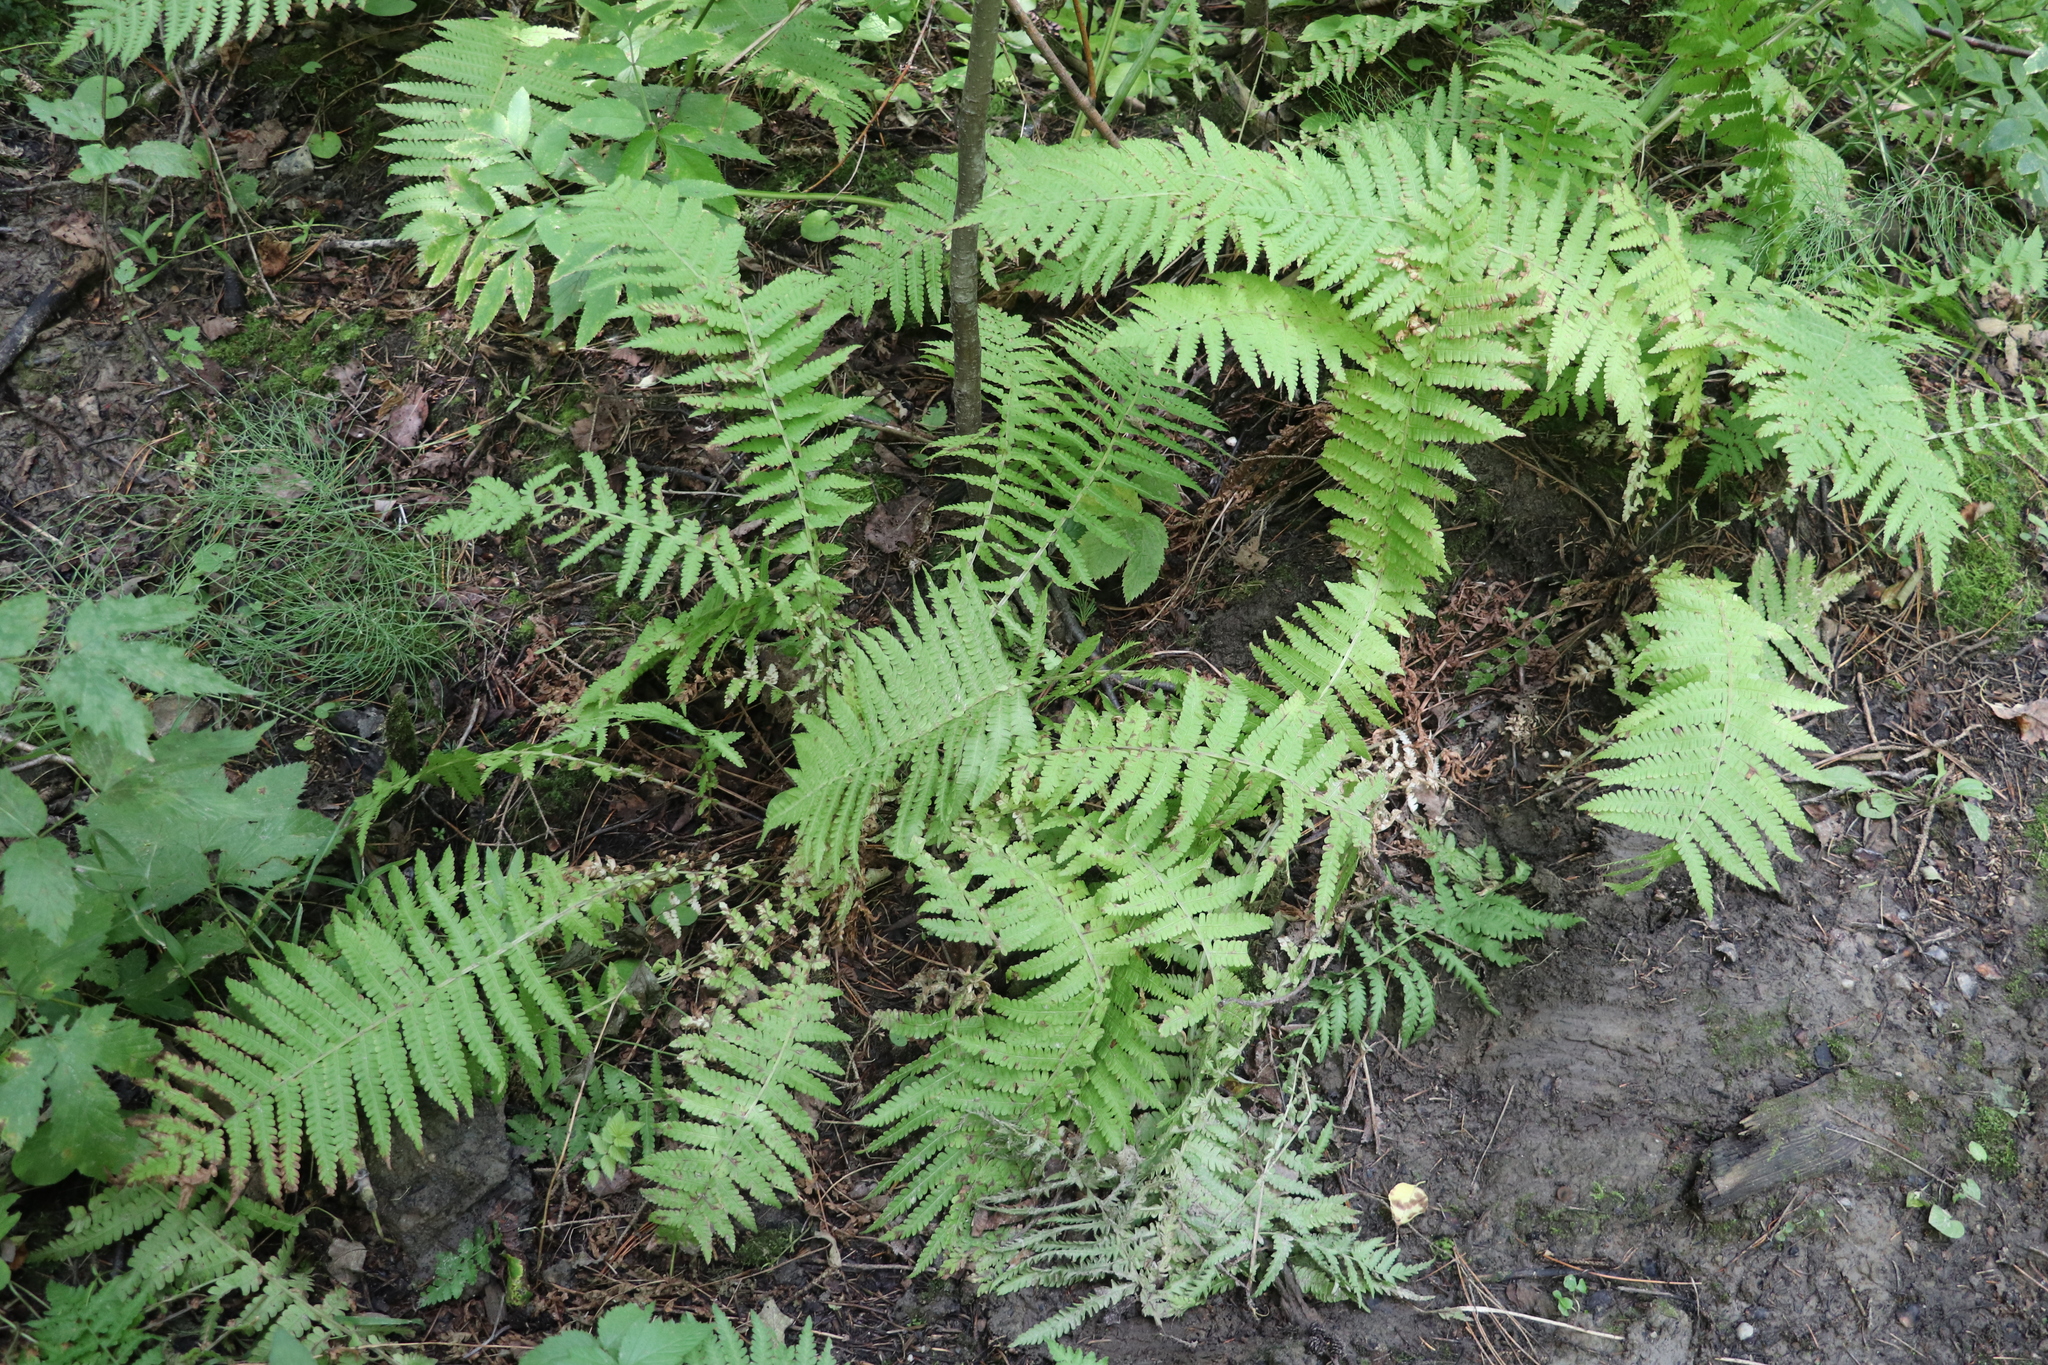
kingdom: Plantae
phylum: Tracheophyta
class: Polypodiopsida
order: Polypodiales
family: Onocleaceae
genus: Matteuccia
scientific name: Matteuccia struthiopteris
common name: Ostrich fern
